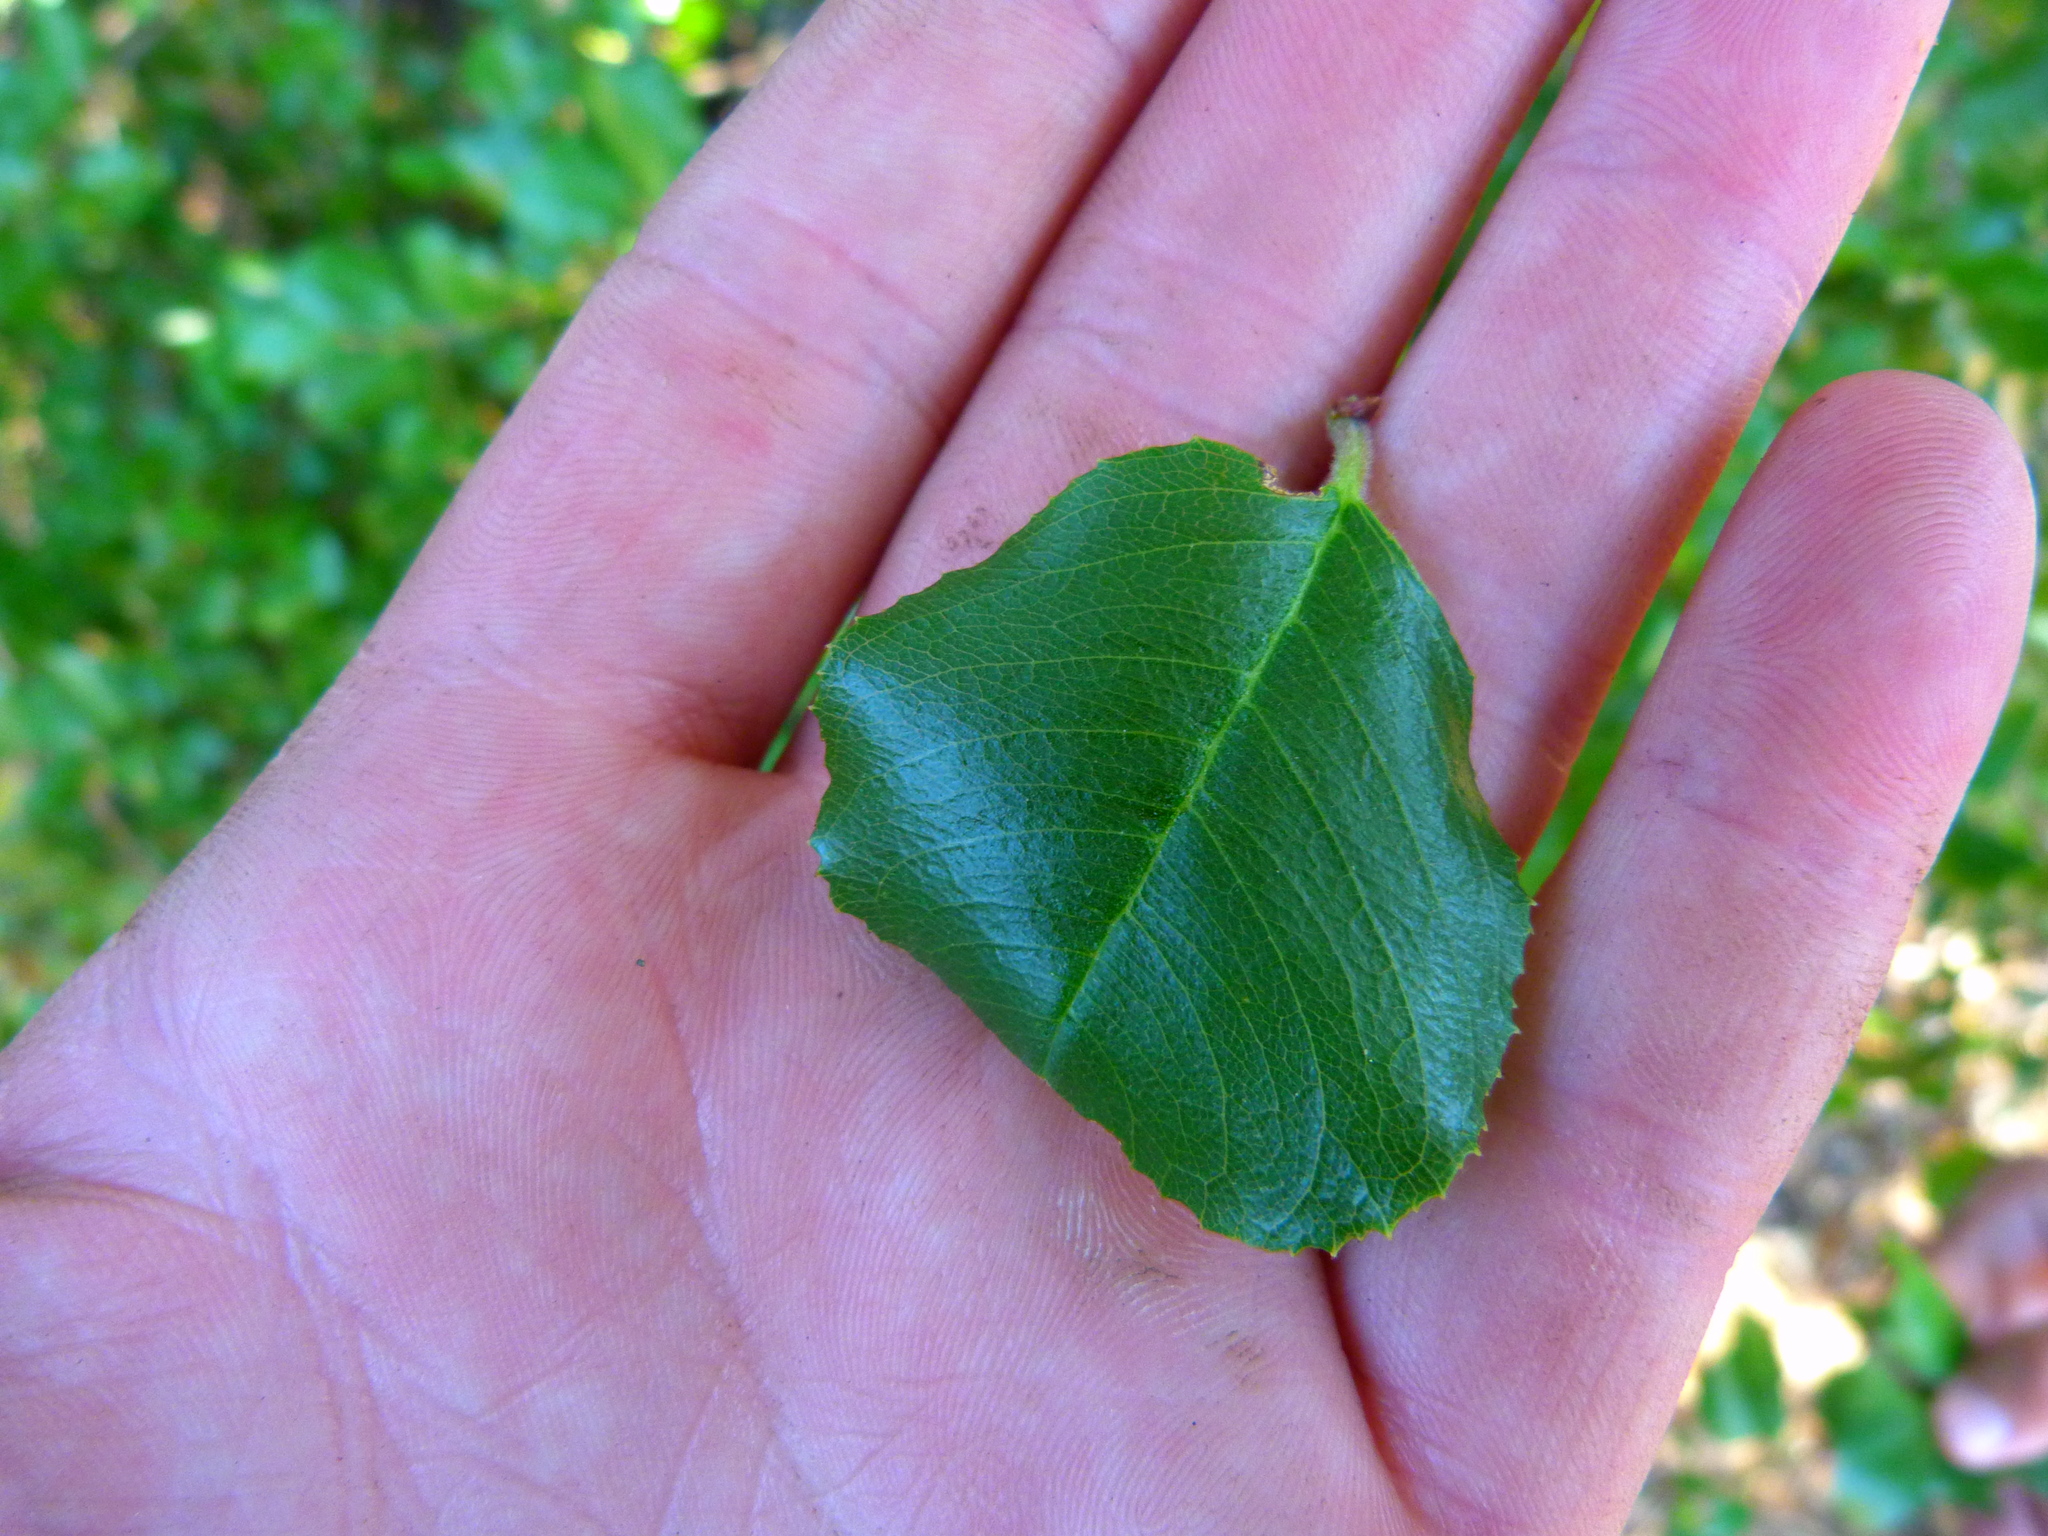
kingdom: Plantae
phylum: Tracheophyta
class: Magnoliopsida
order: Rosales
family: Rosaceae
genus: Prunus
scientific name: Prunus ilicifolia
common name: Hollyleaf cherry
